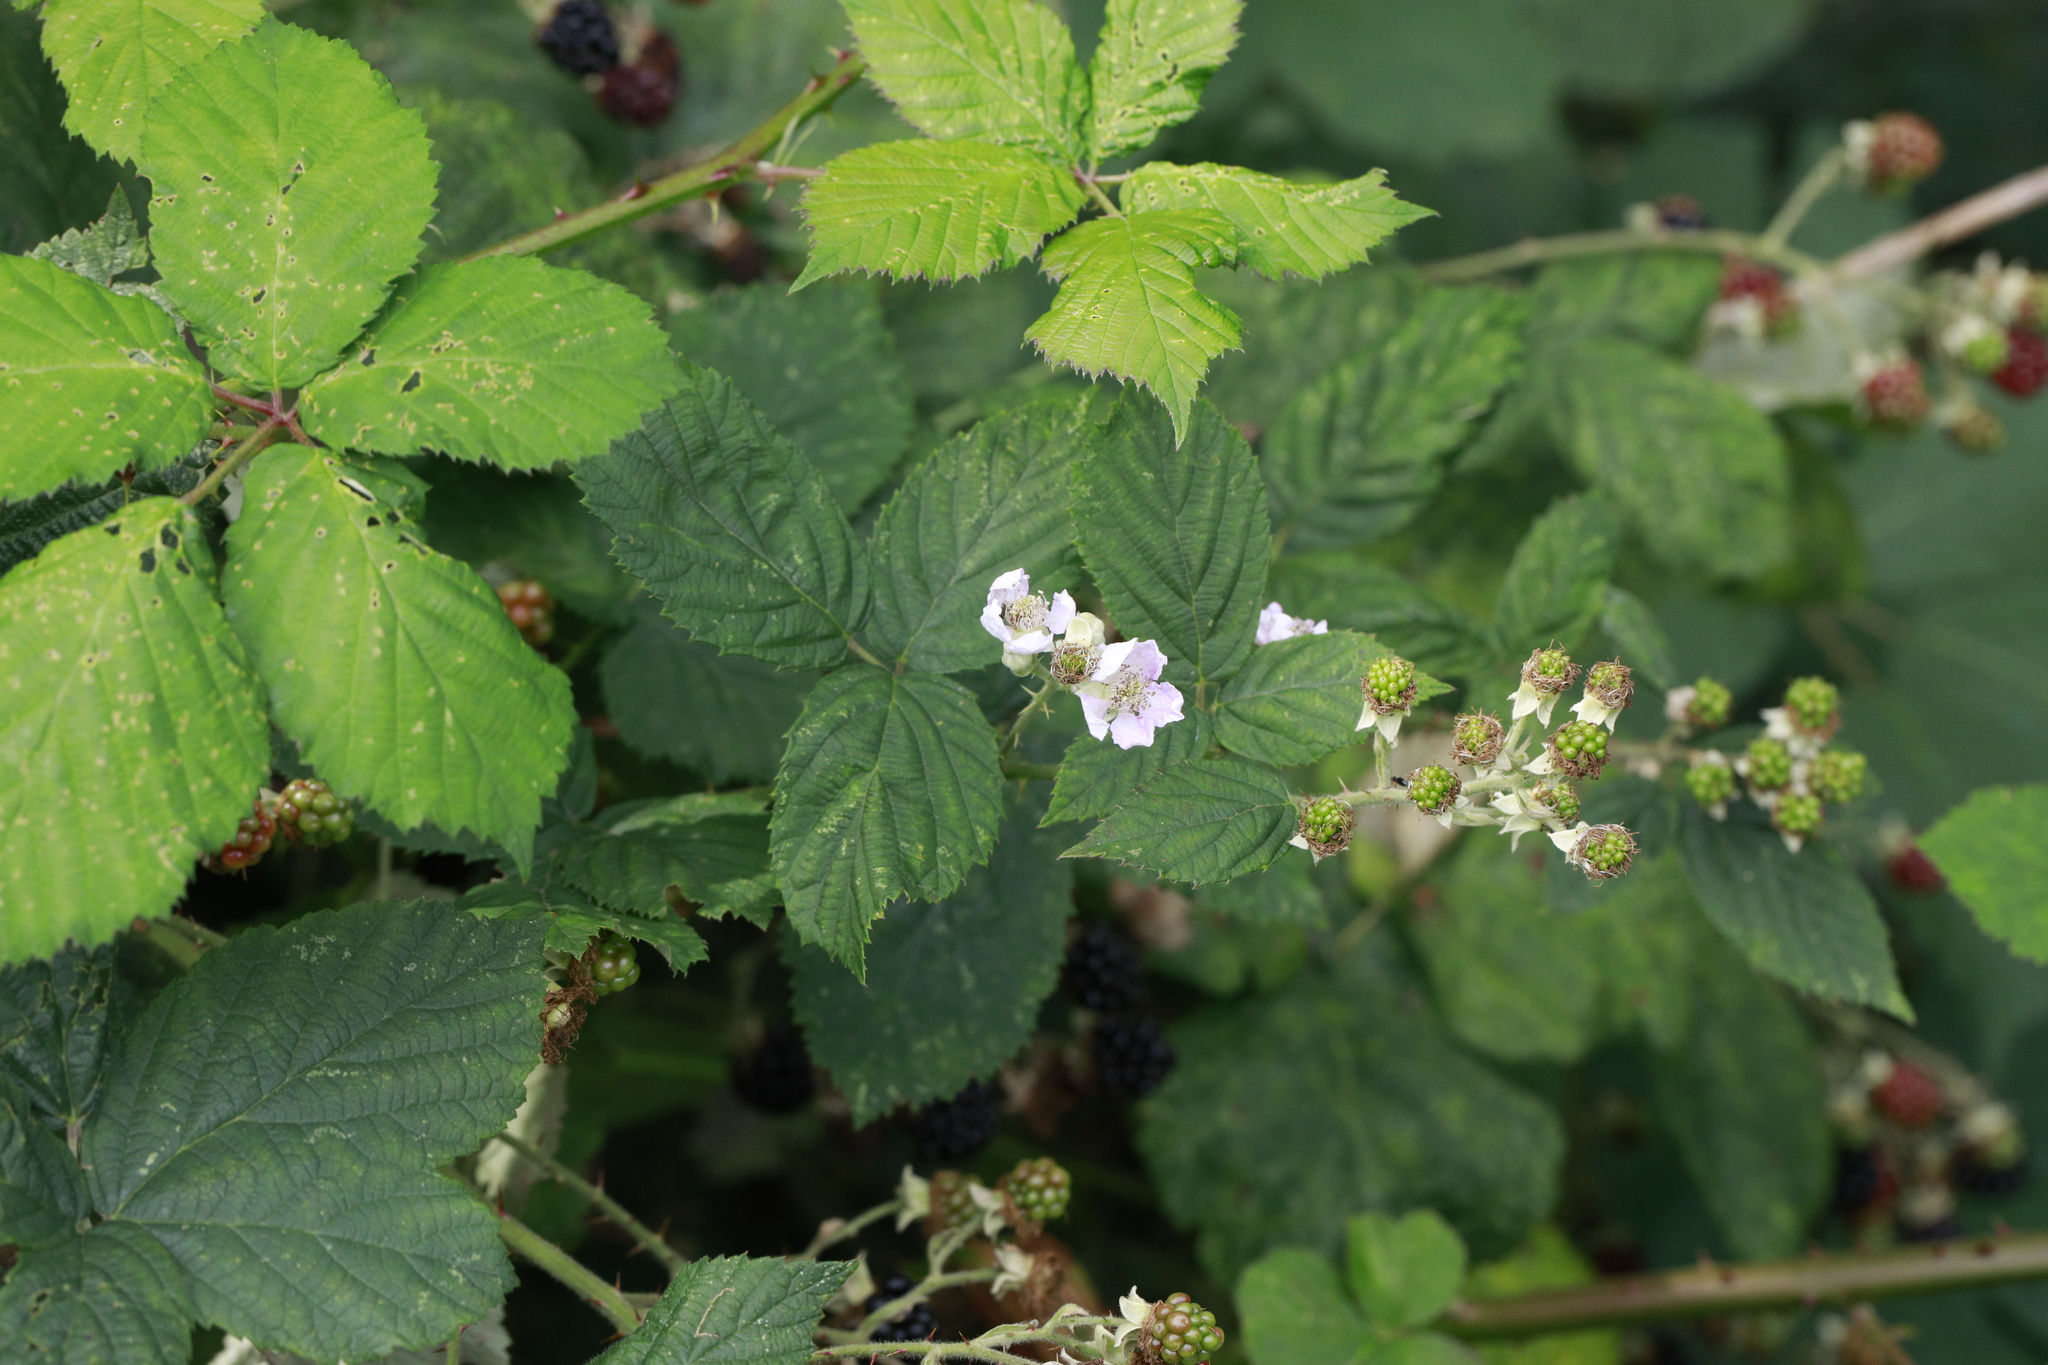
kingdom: Plantae
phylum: Tracheophyta
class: Magnoliopsida
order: Rosales
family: Rosaceae
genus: Rubus
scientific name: Rubus armeniacus
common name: Himalayan blackberry
